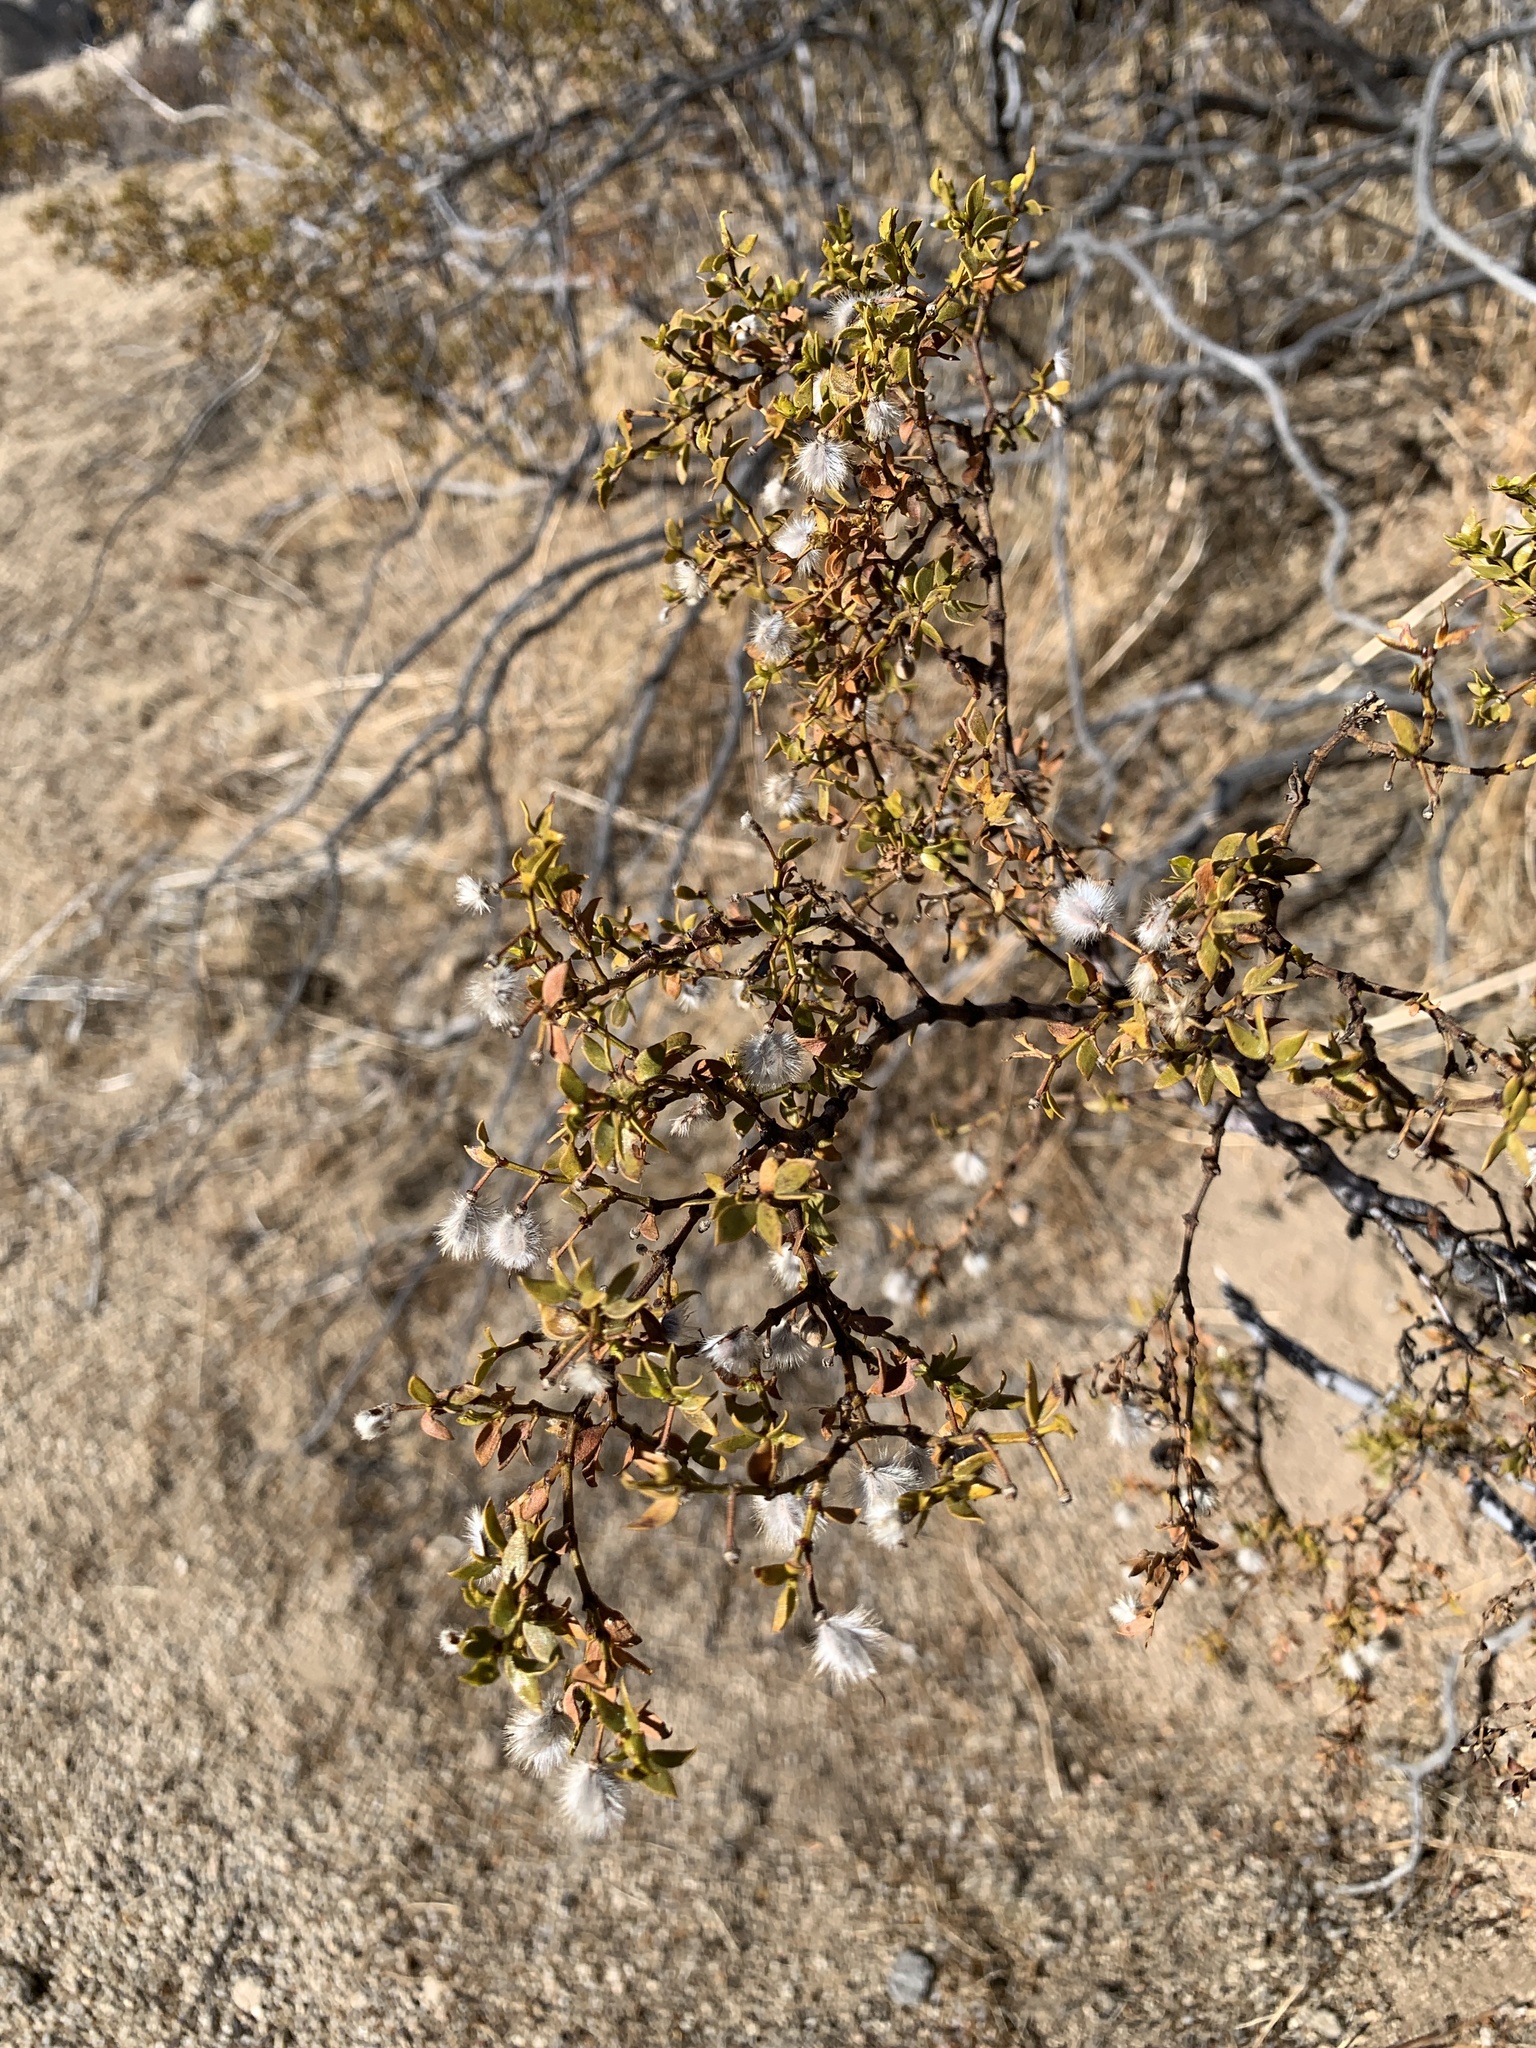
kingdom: Plantae
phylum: Tracheophyta
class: Magnoliopsida
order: Zygophyllales
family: Zygophyllaceae
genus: Larrea
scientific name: Larrea tridentata
